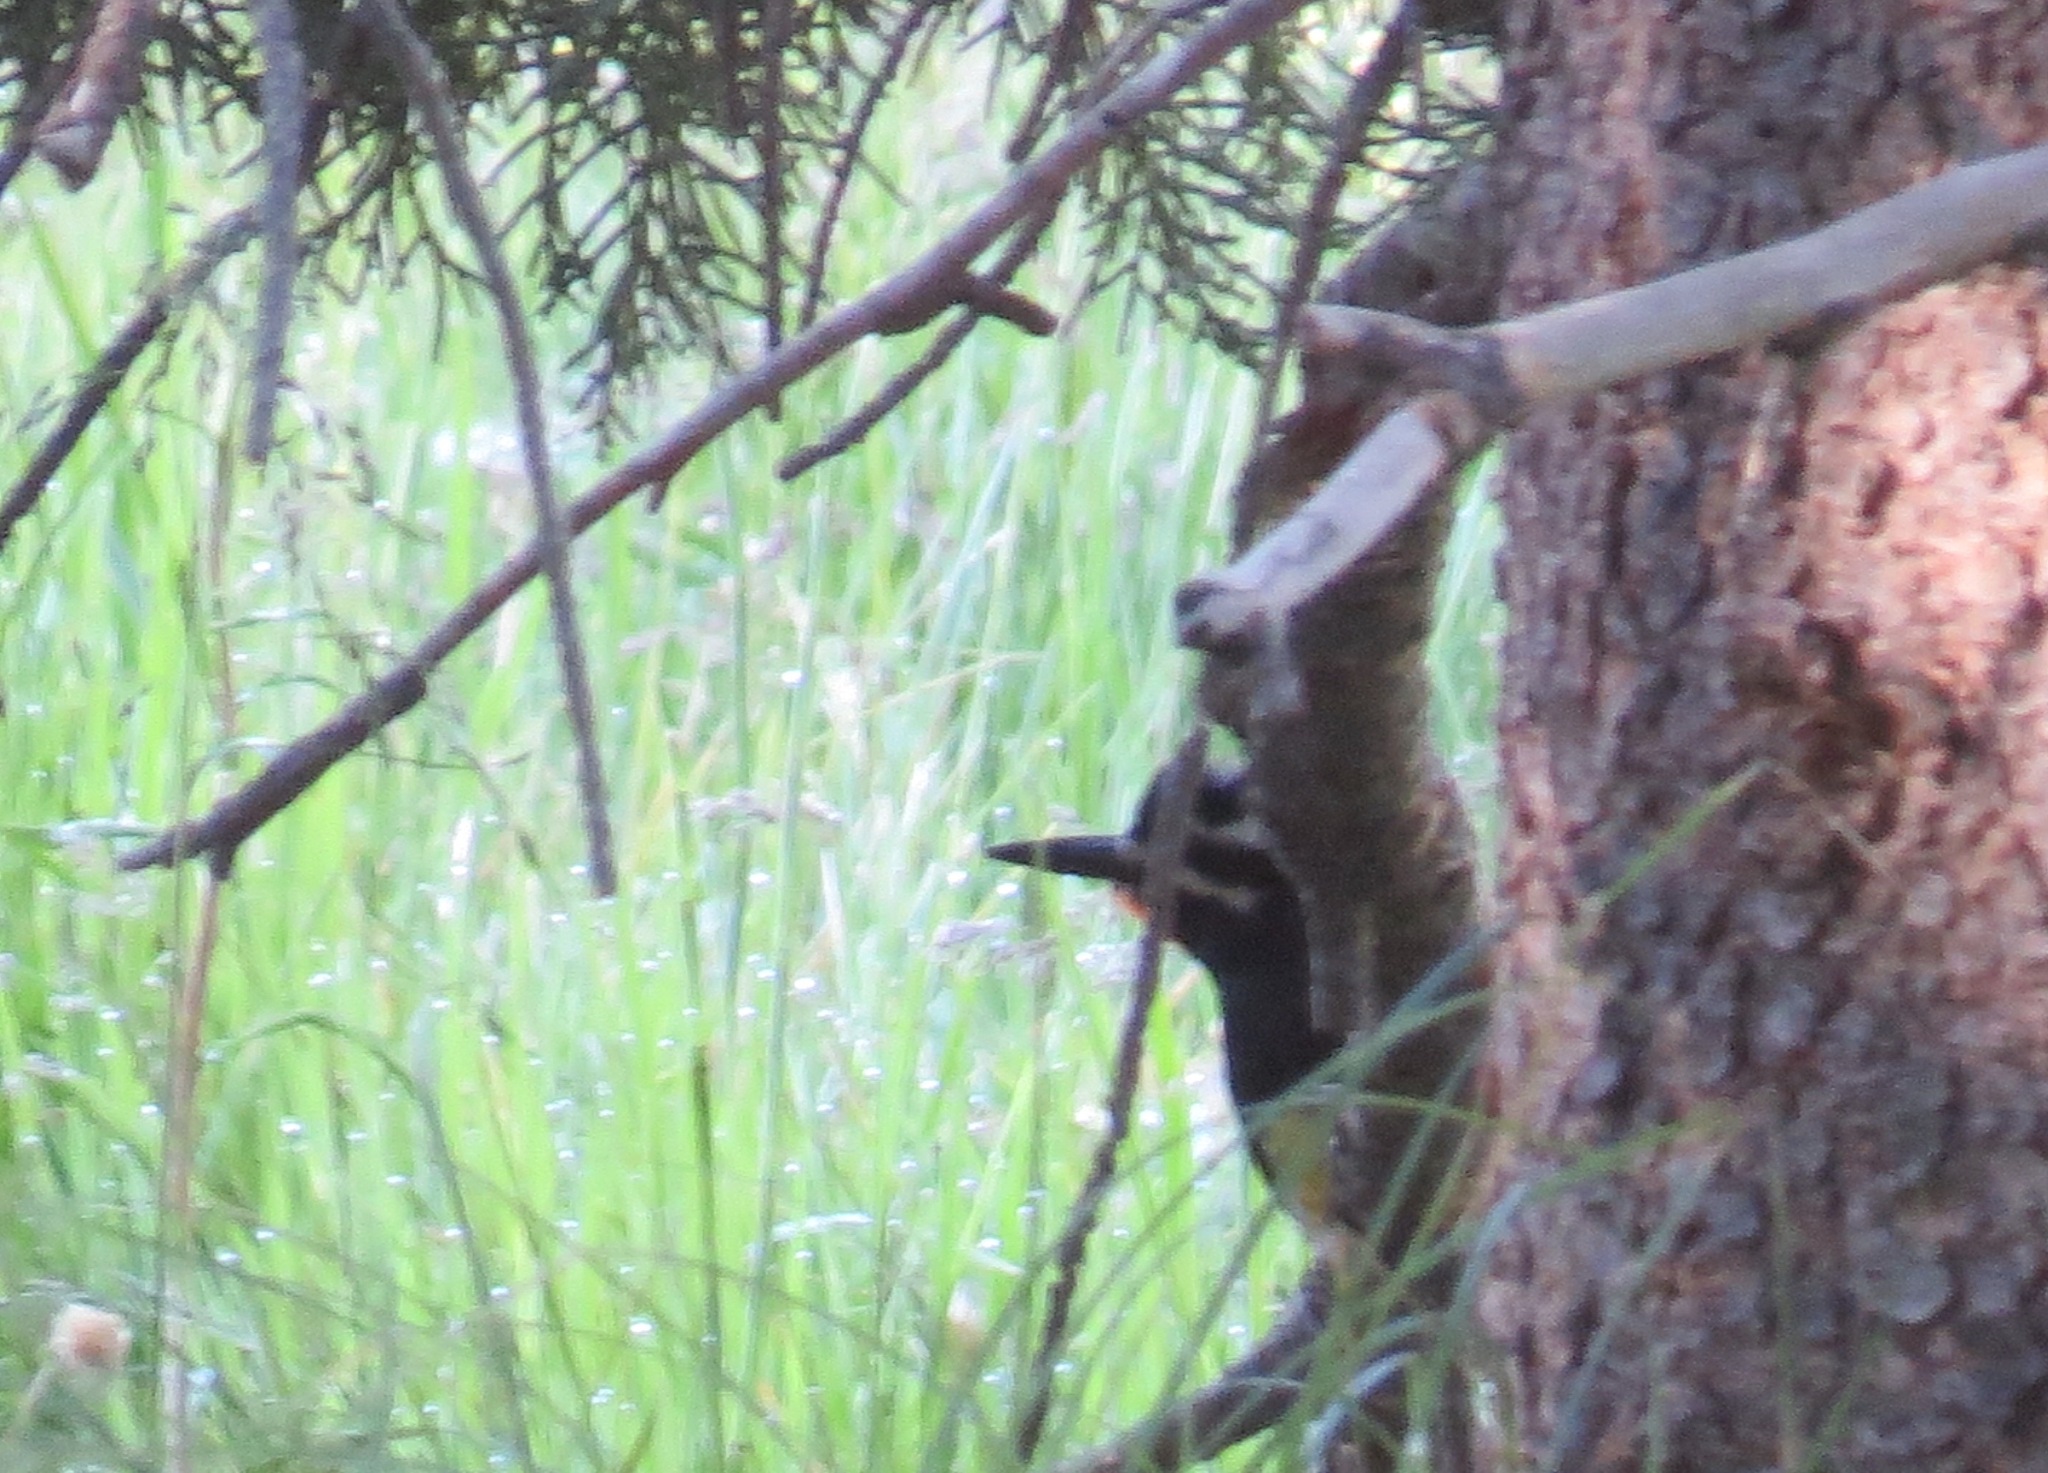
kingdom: Animalia
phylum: Chordata
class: Aves
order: Piciformes
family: Picidae
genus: Sphyrapicus
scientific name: Sphyrapicus thyroideus
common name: Williamson's sapsucker
